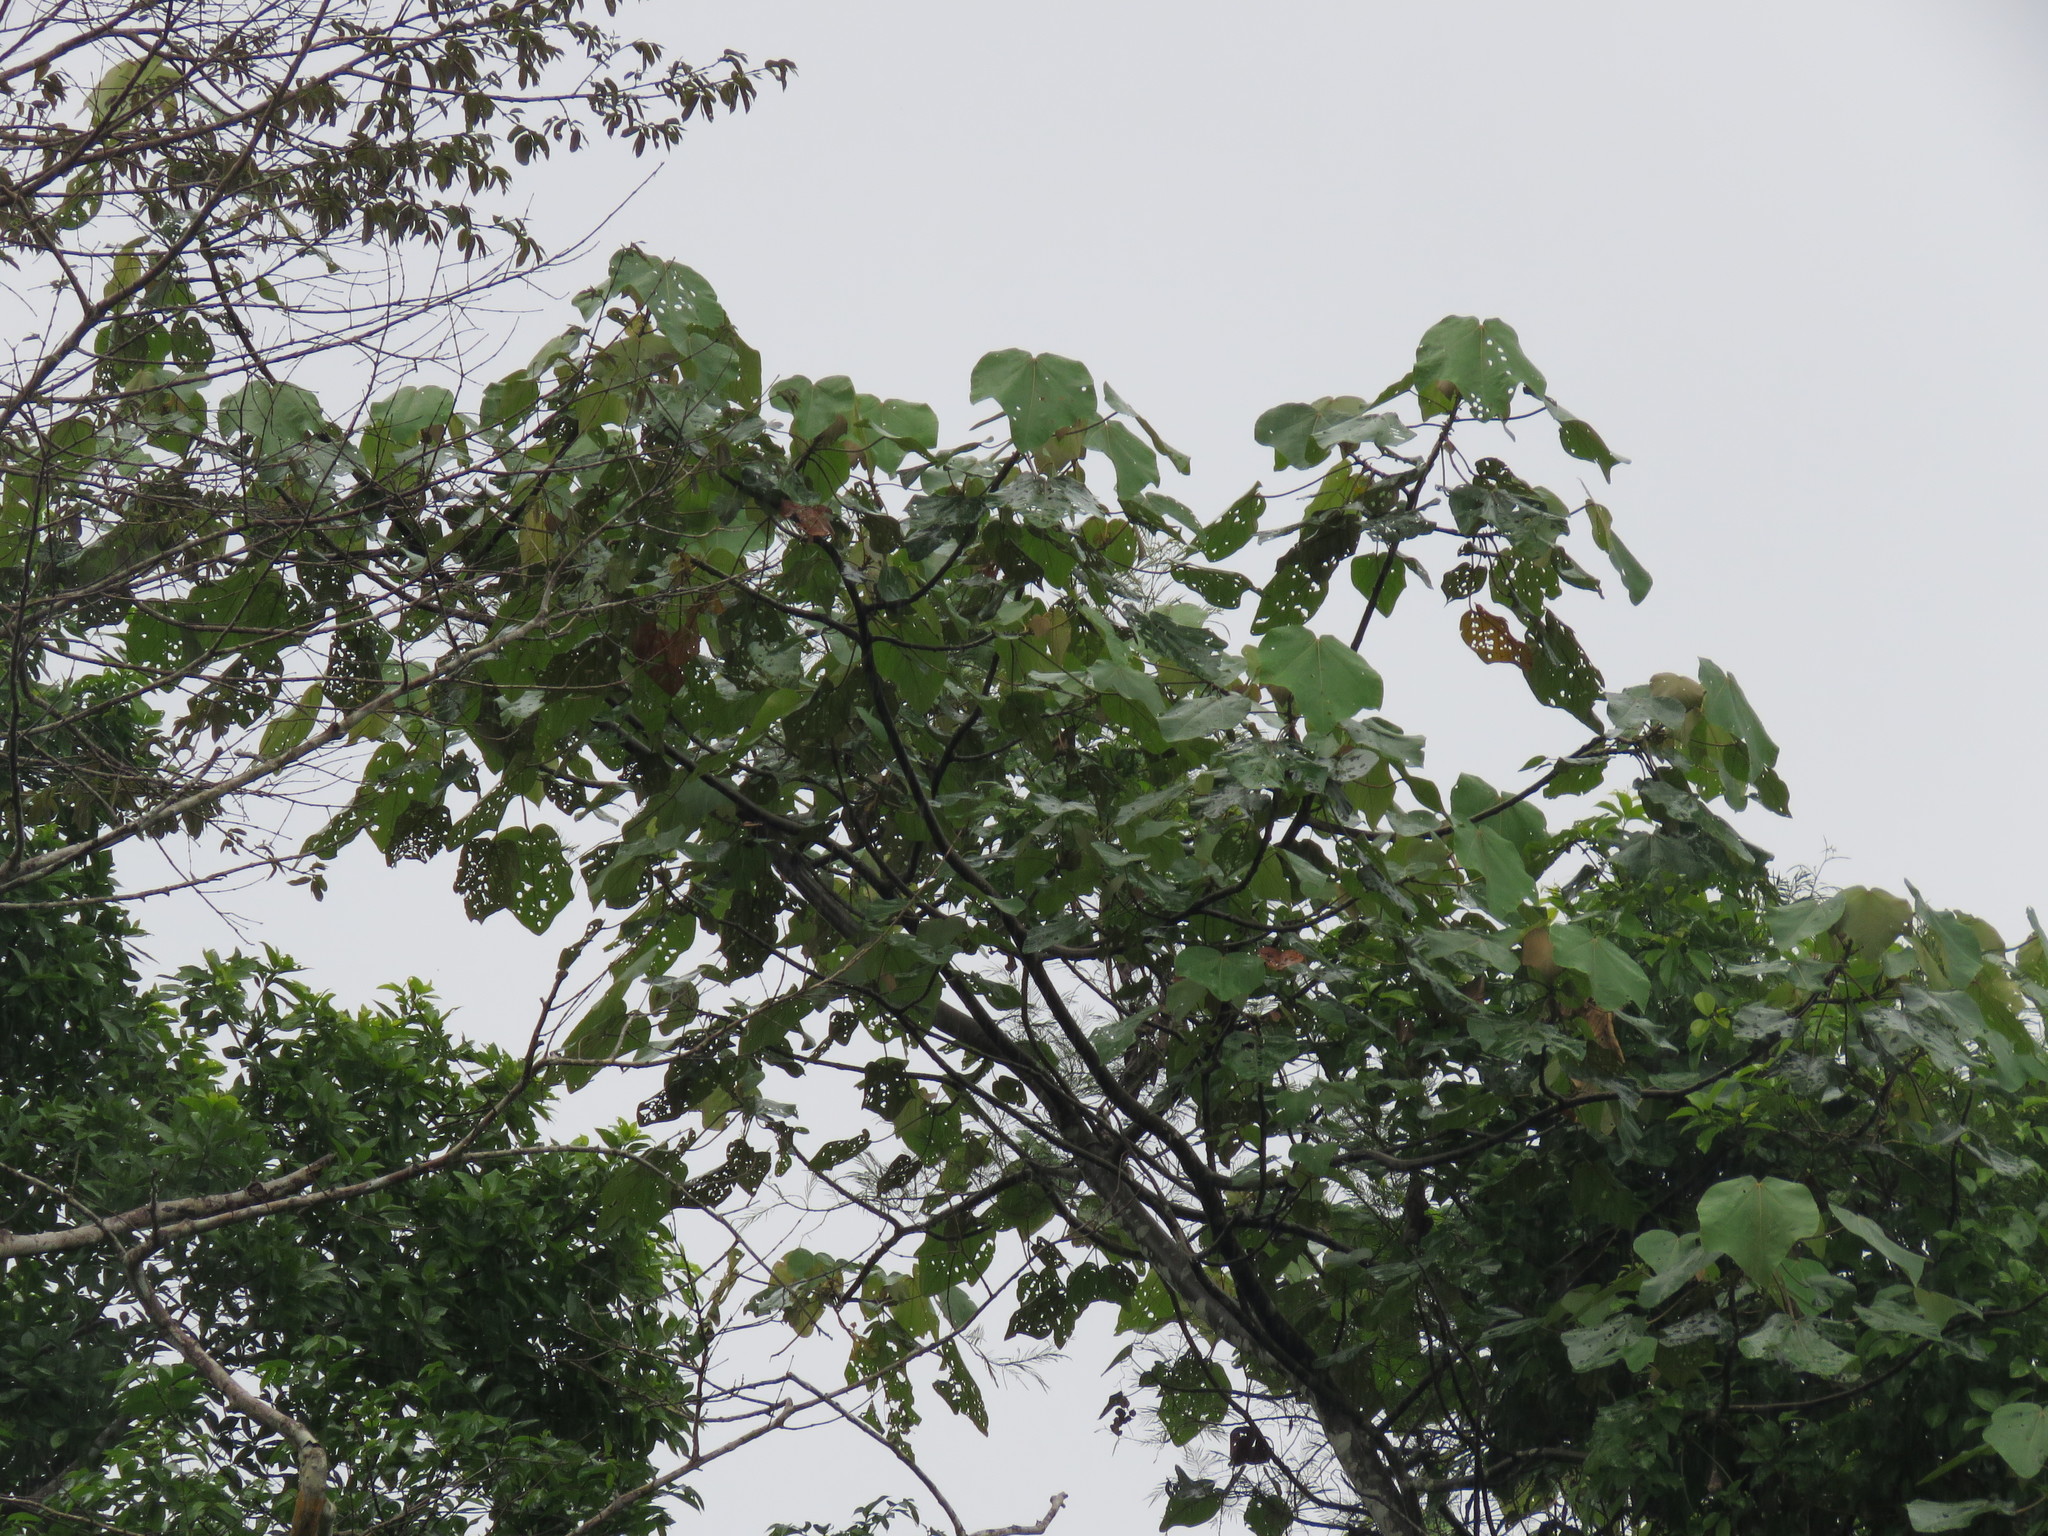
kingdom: Plantae
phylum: Tracheophyta
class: Magnoliopsida
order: Malvales
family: Malvaceae
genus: Ochroma
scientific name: Ochroma pyramidale
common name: Balsa
